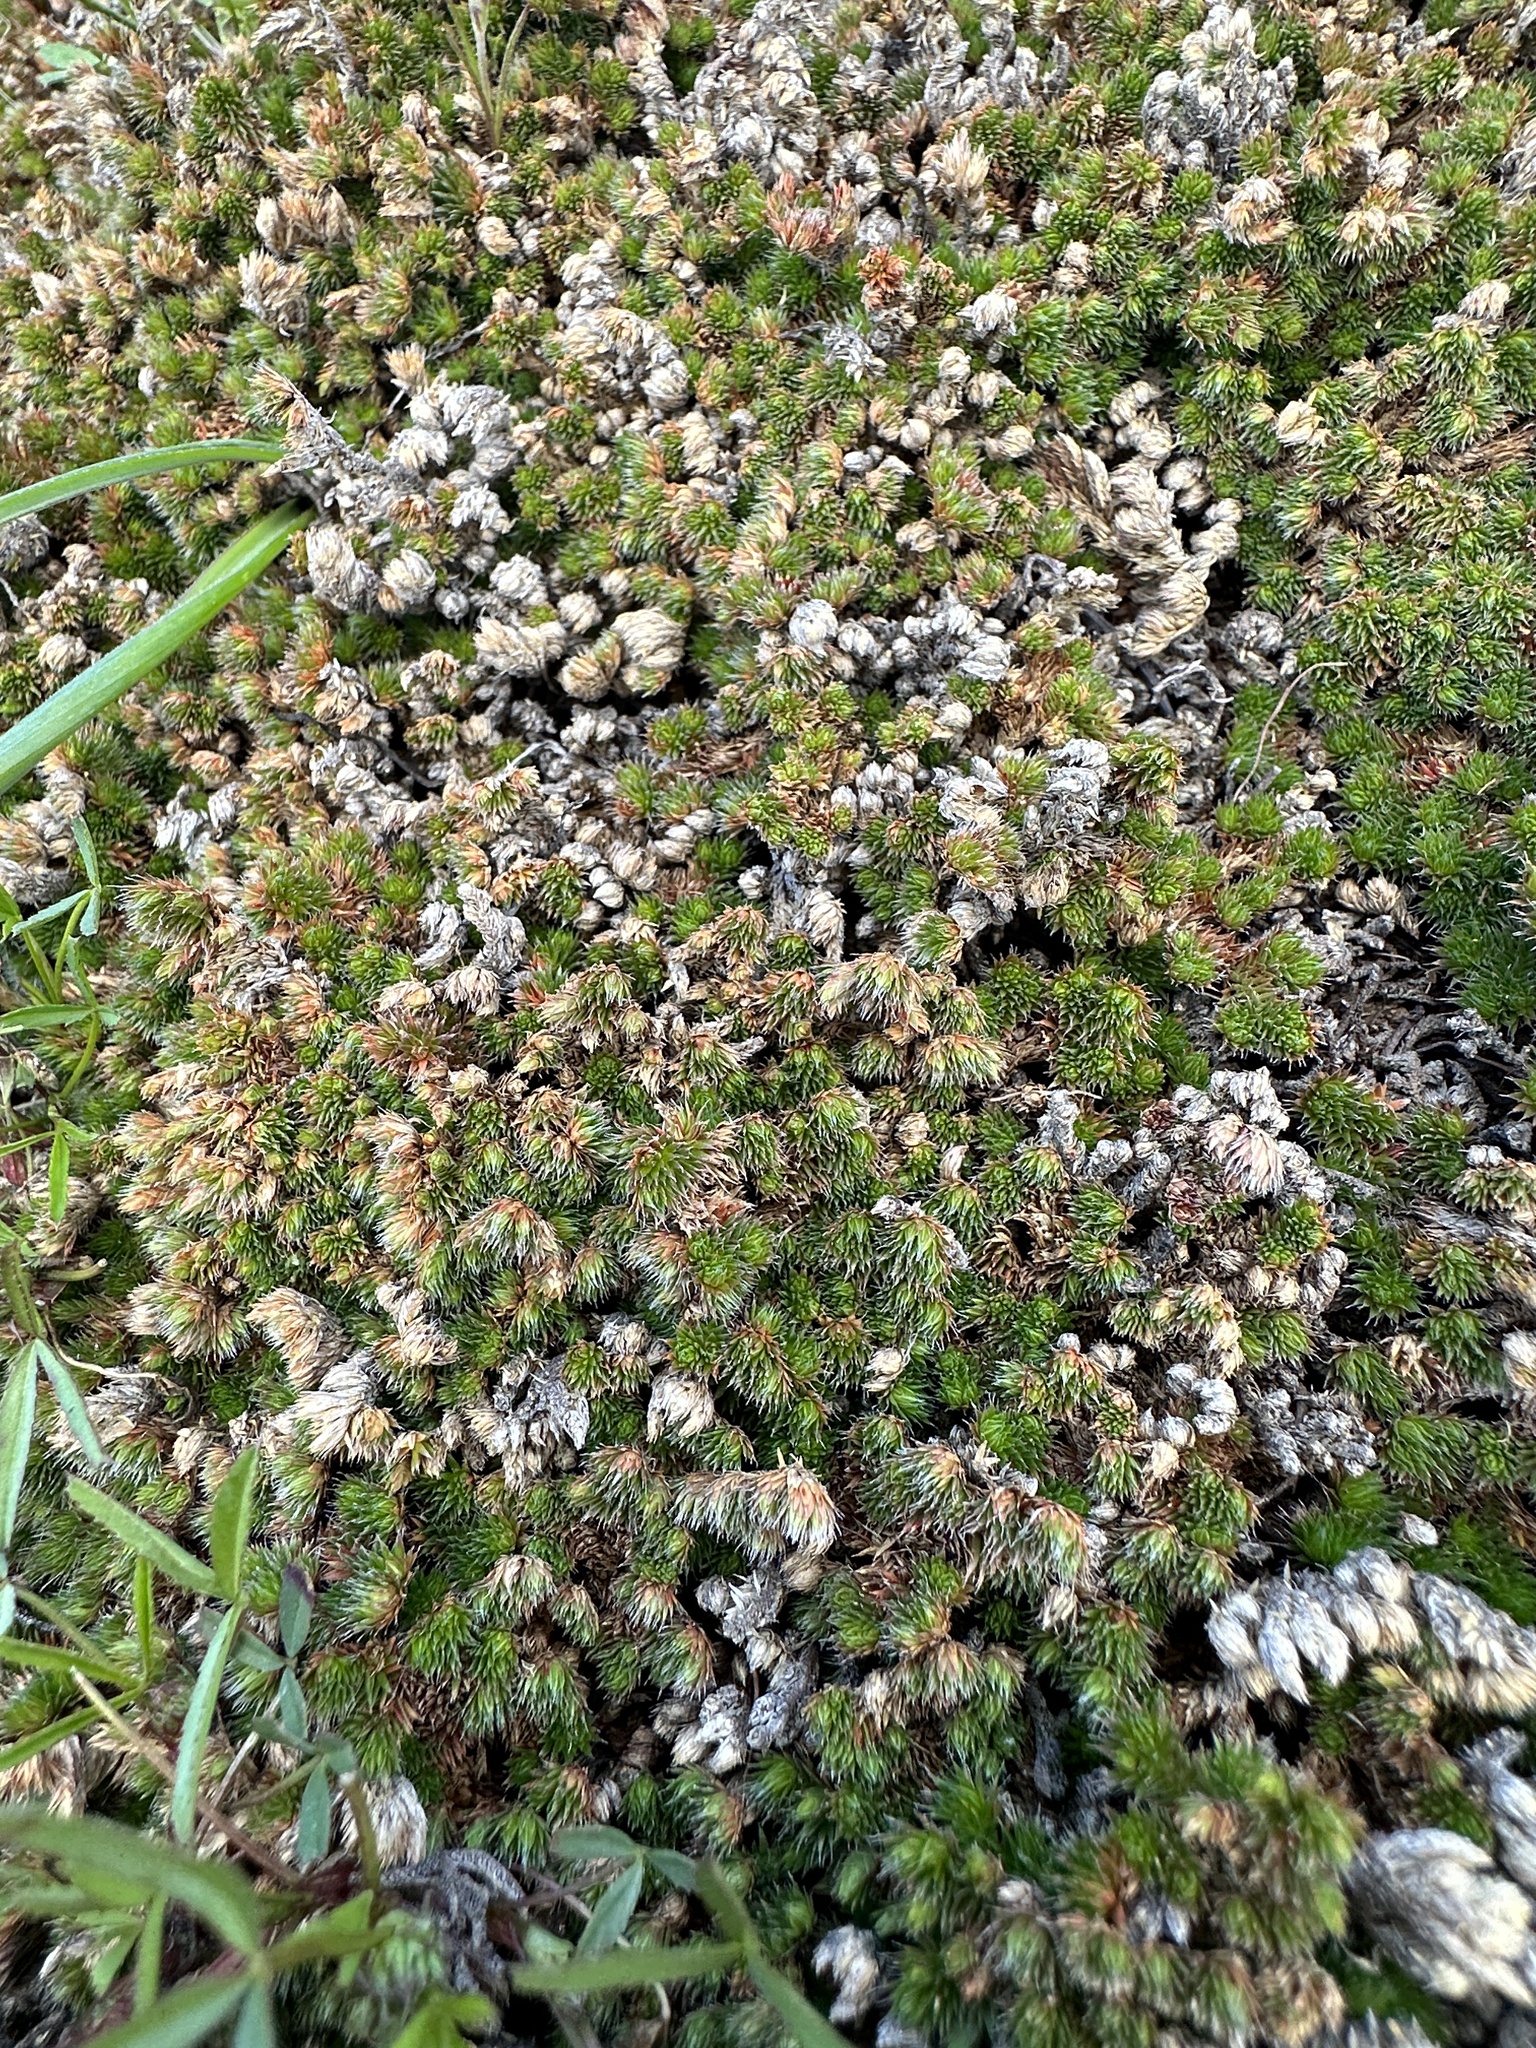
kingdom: Plantae
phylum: Tracheophyta
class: Lycopodiopsida
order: Selaginellales
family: Selaginellaceae
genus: Selaginella
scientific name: Selaginella hansenii
